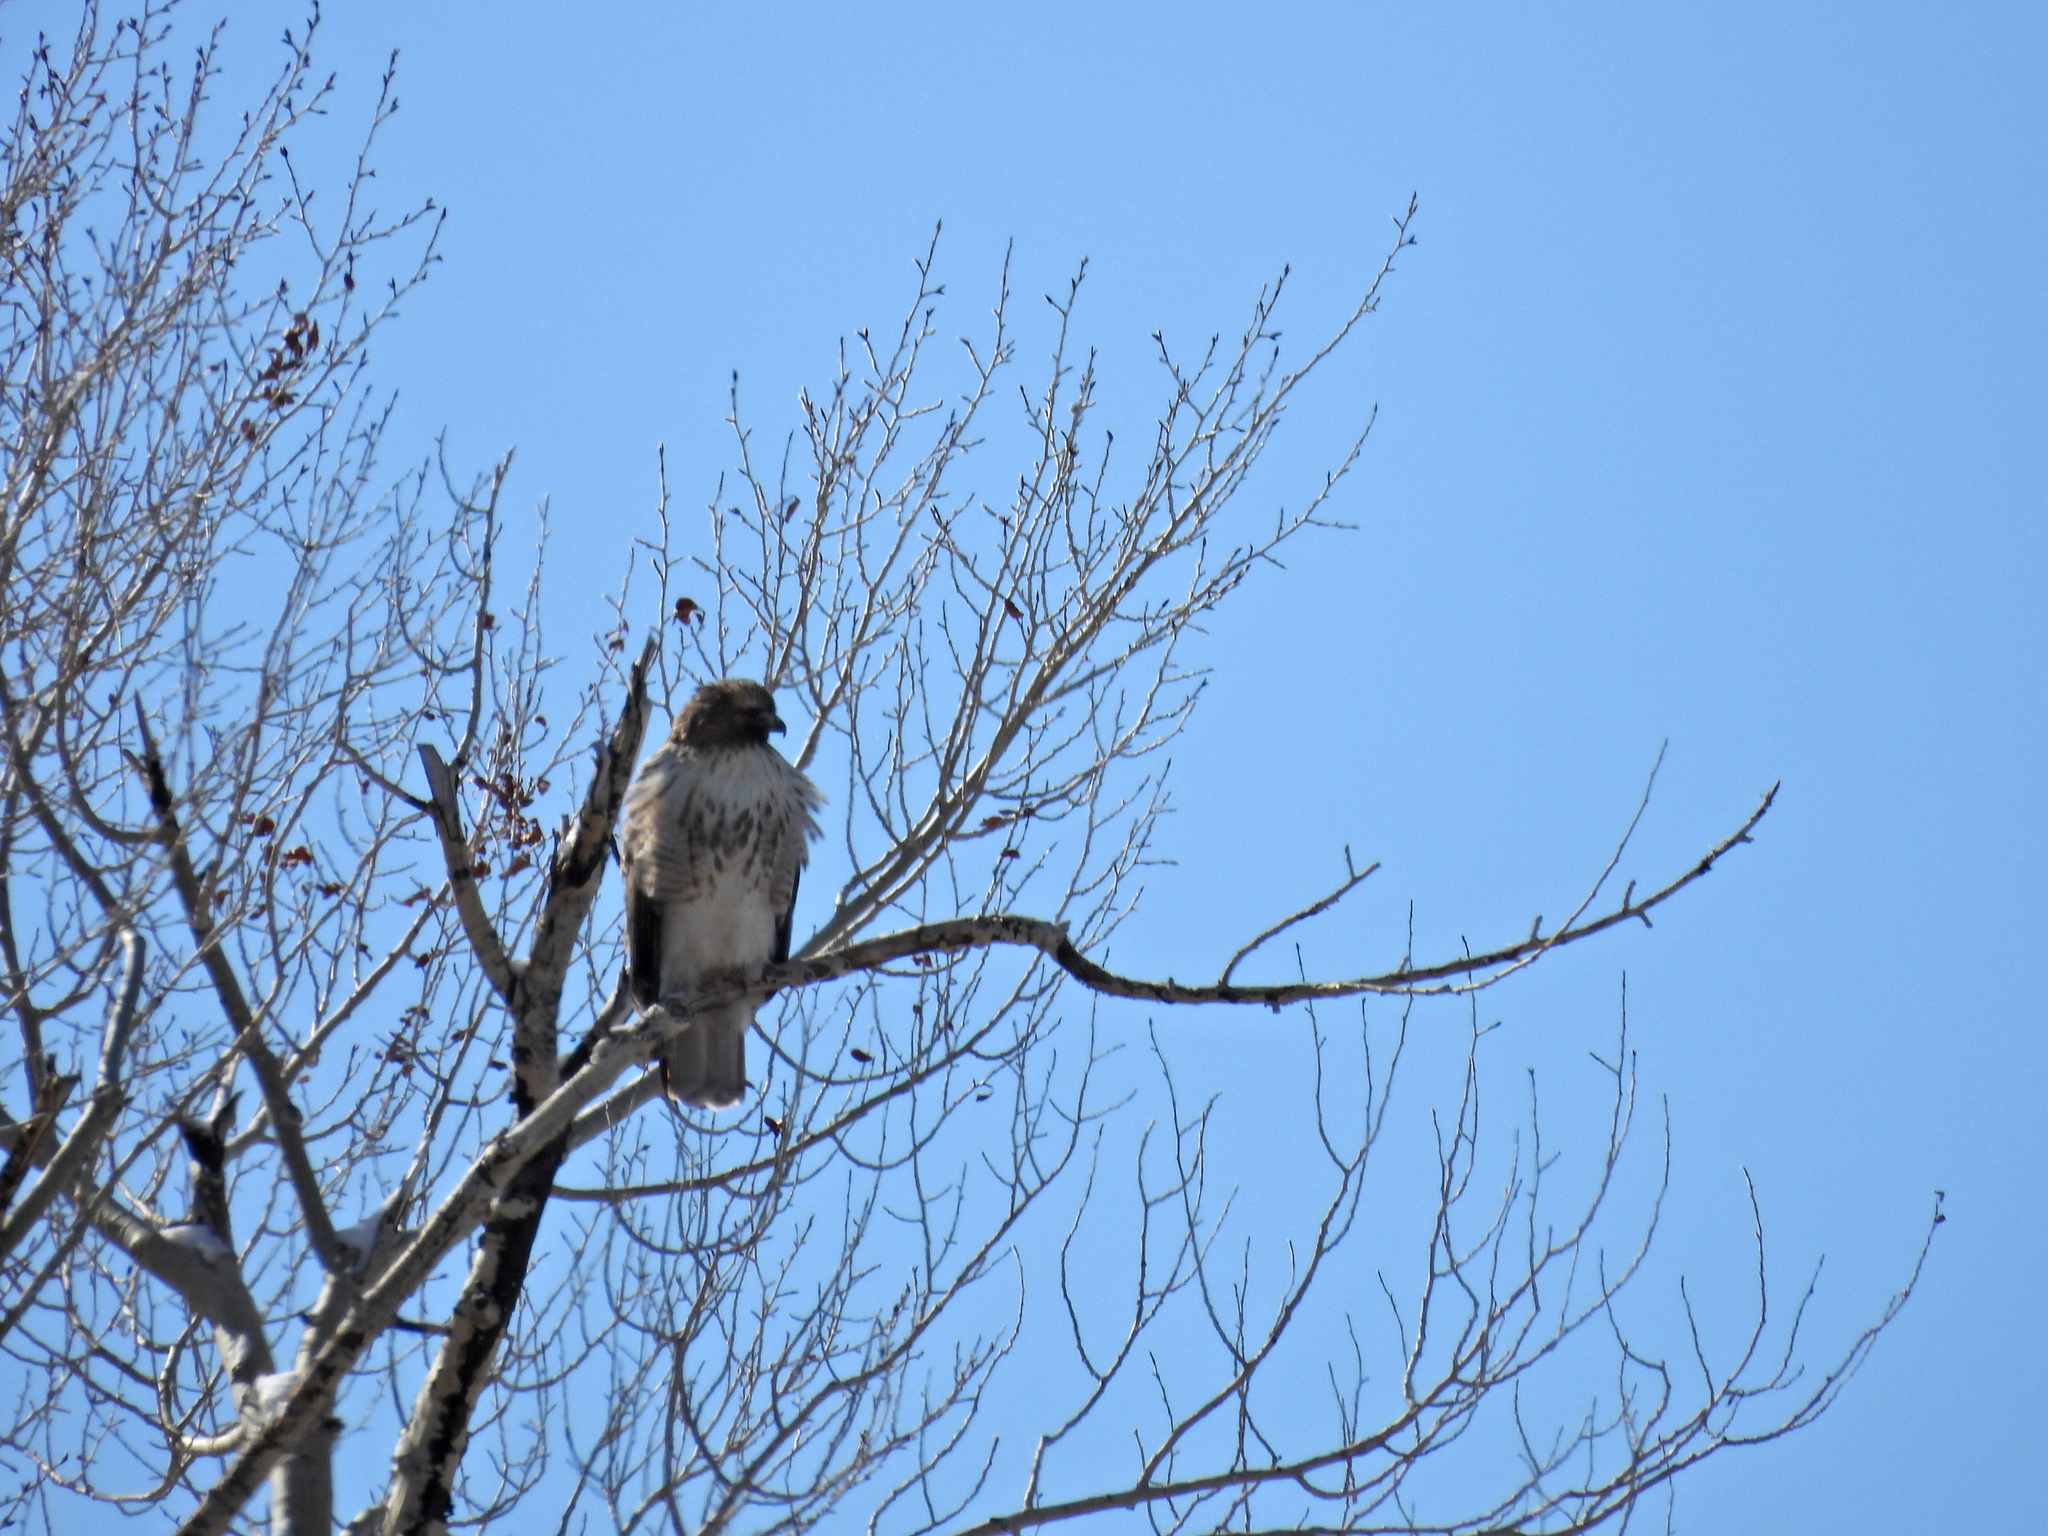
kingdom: Animalia
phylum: Chordata
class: Aves
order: Accipitriformes
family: Accipitridae
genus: Buteo
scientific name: Buteo jamaicensis
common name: Red-tailed hawk
